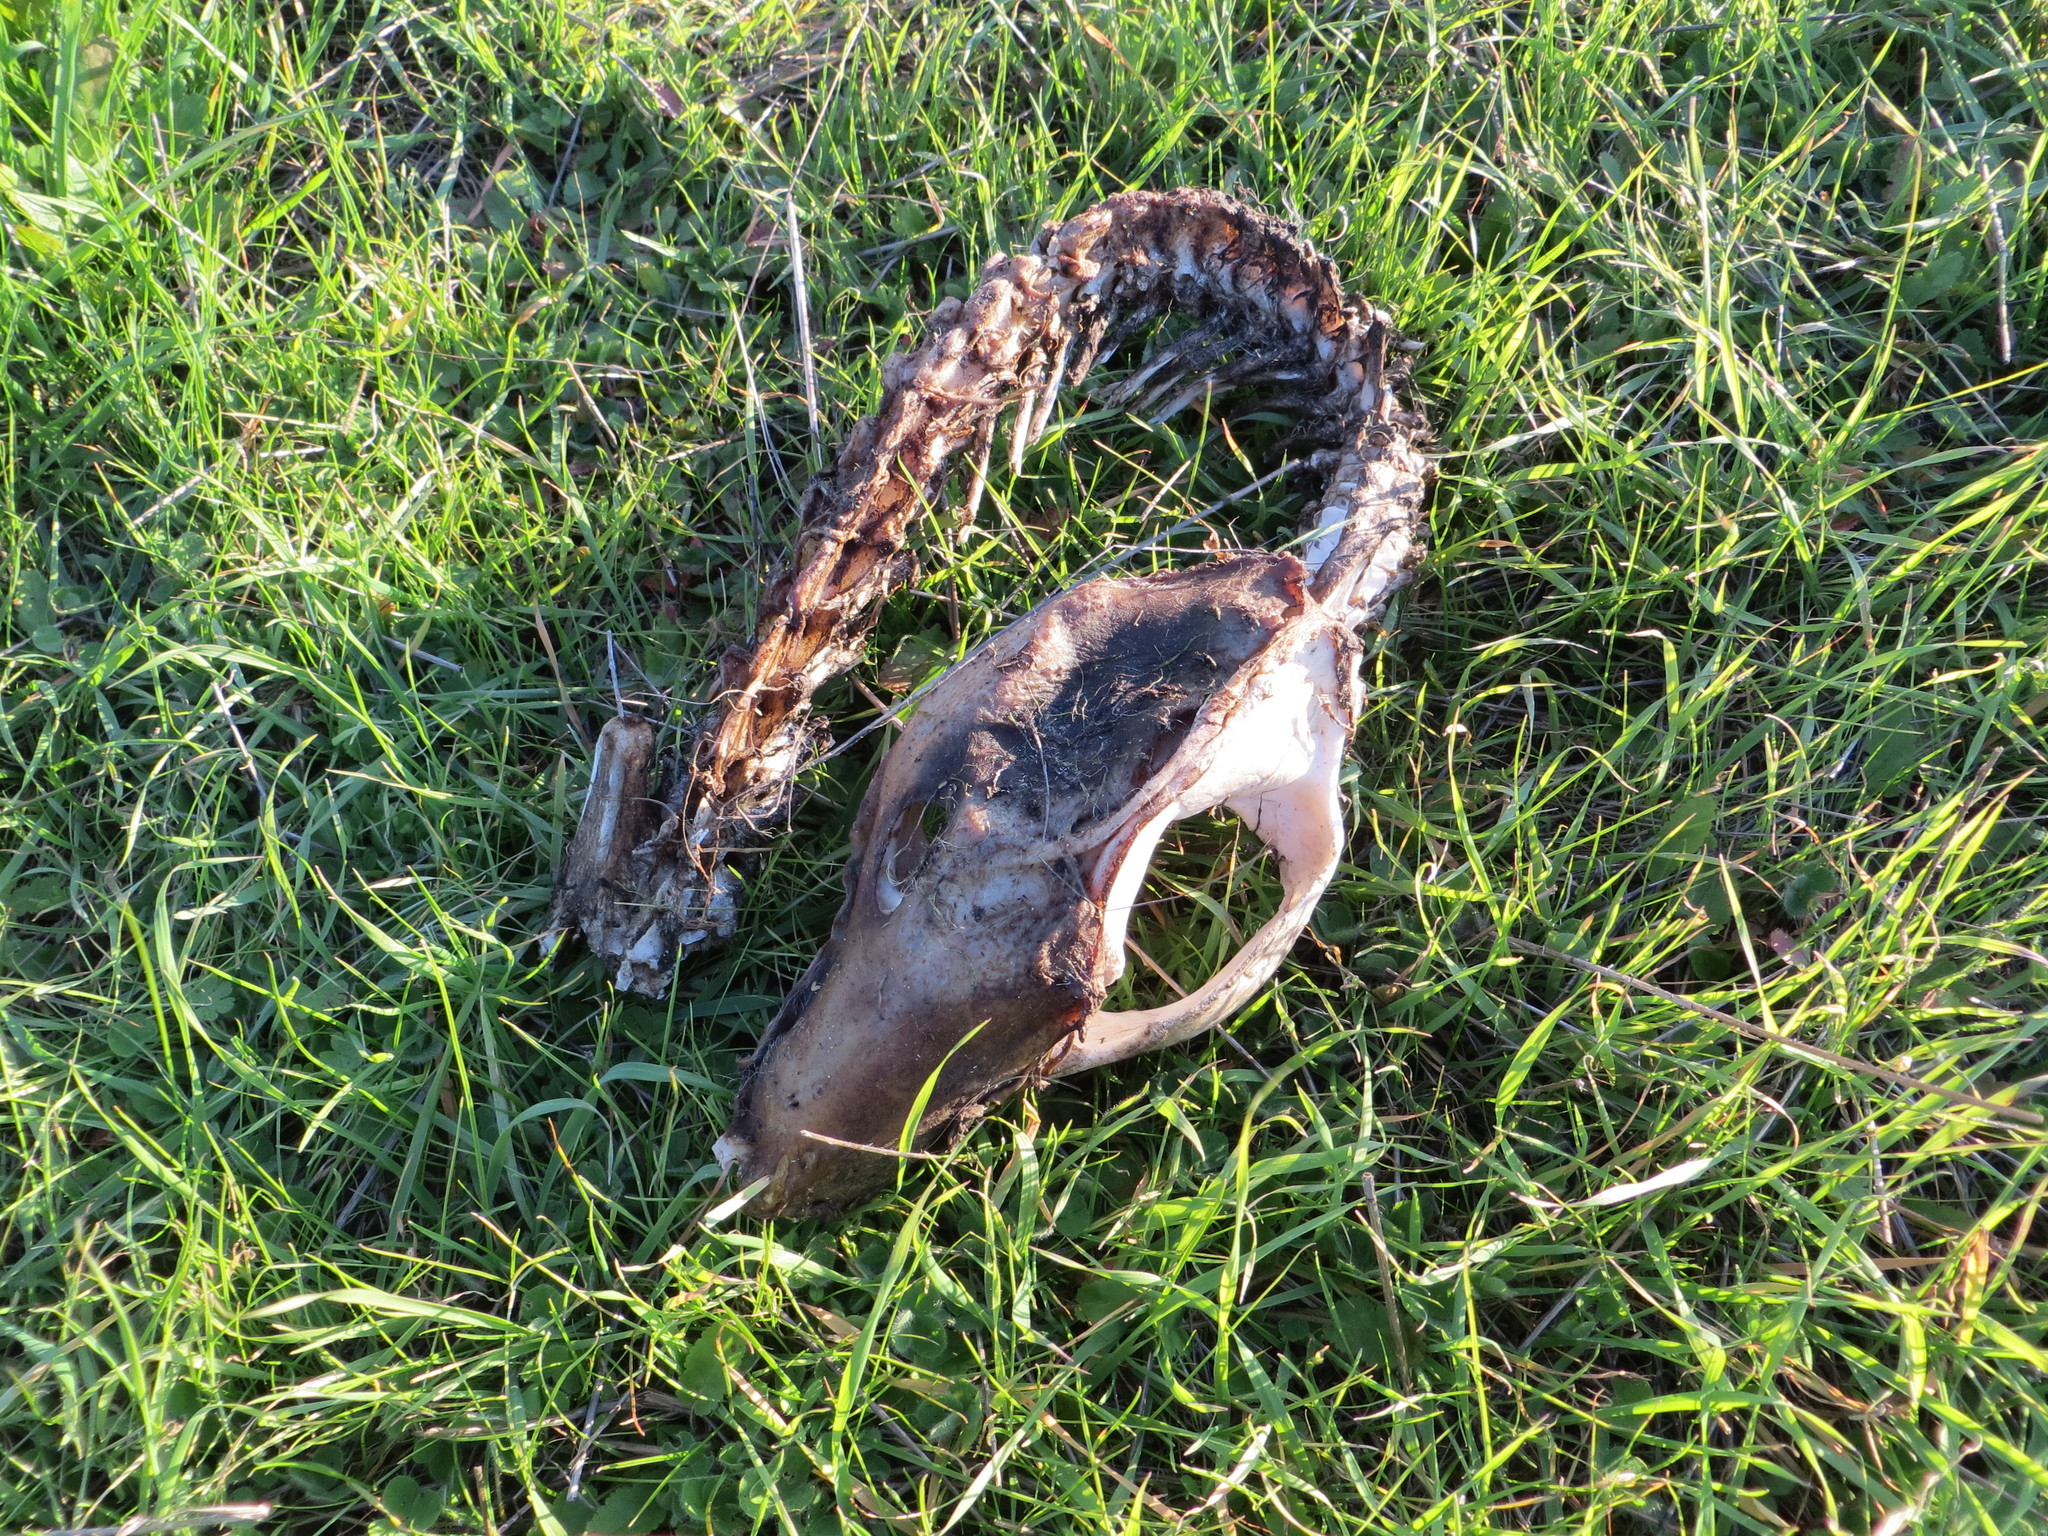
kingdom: Animalia
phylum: Chordata
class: Mammalia
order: Didelphimorphia
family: Didelphidae
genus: Didelphis
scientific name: Didelphis virginiana
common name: Virginia opossum
